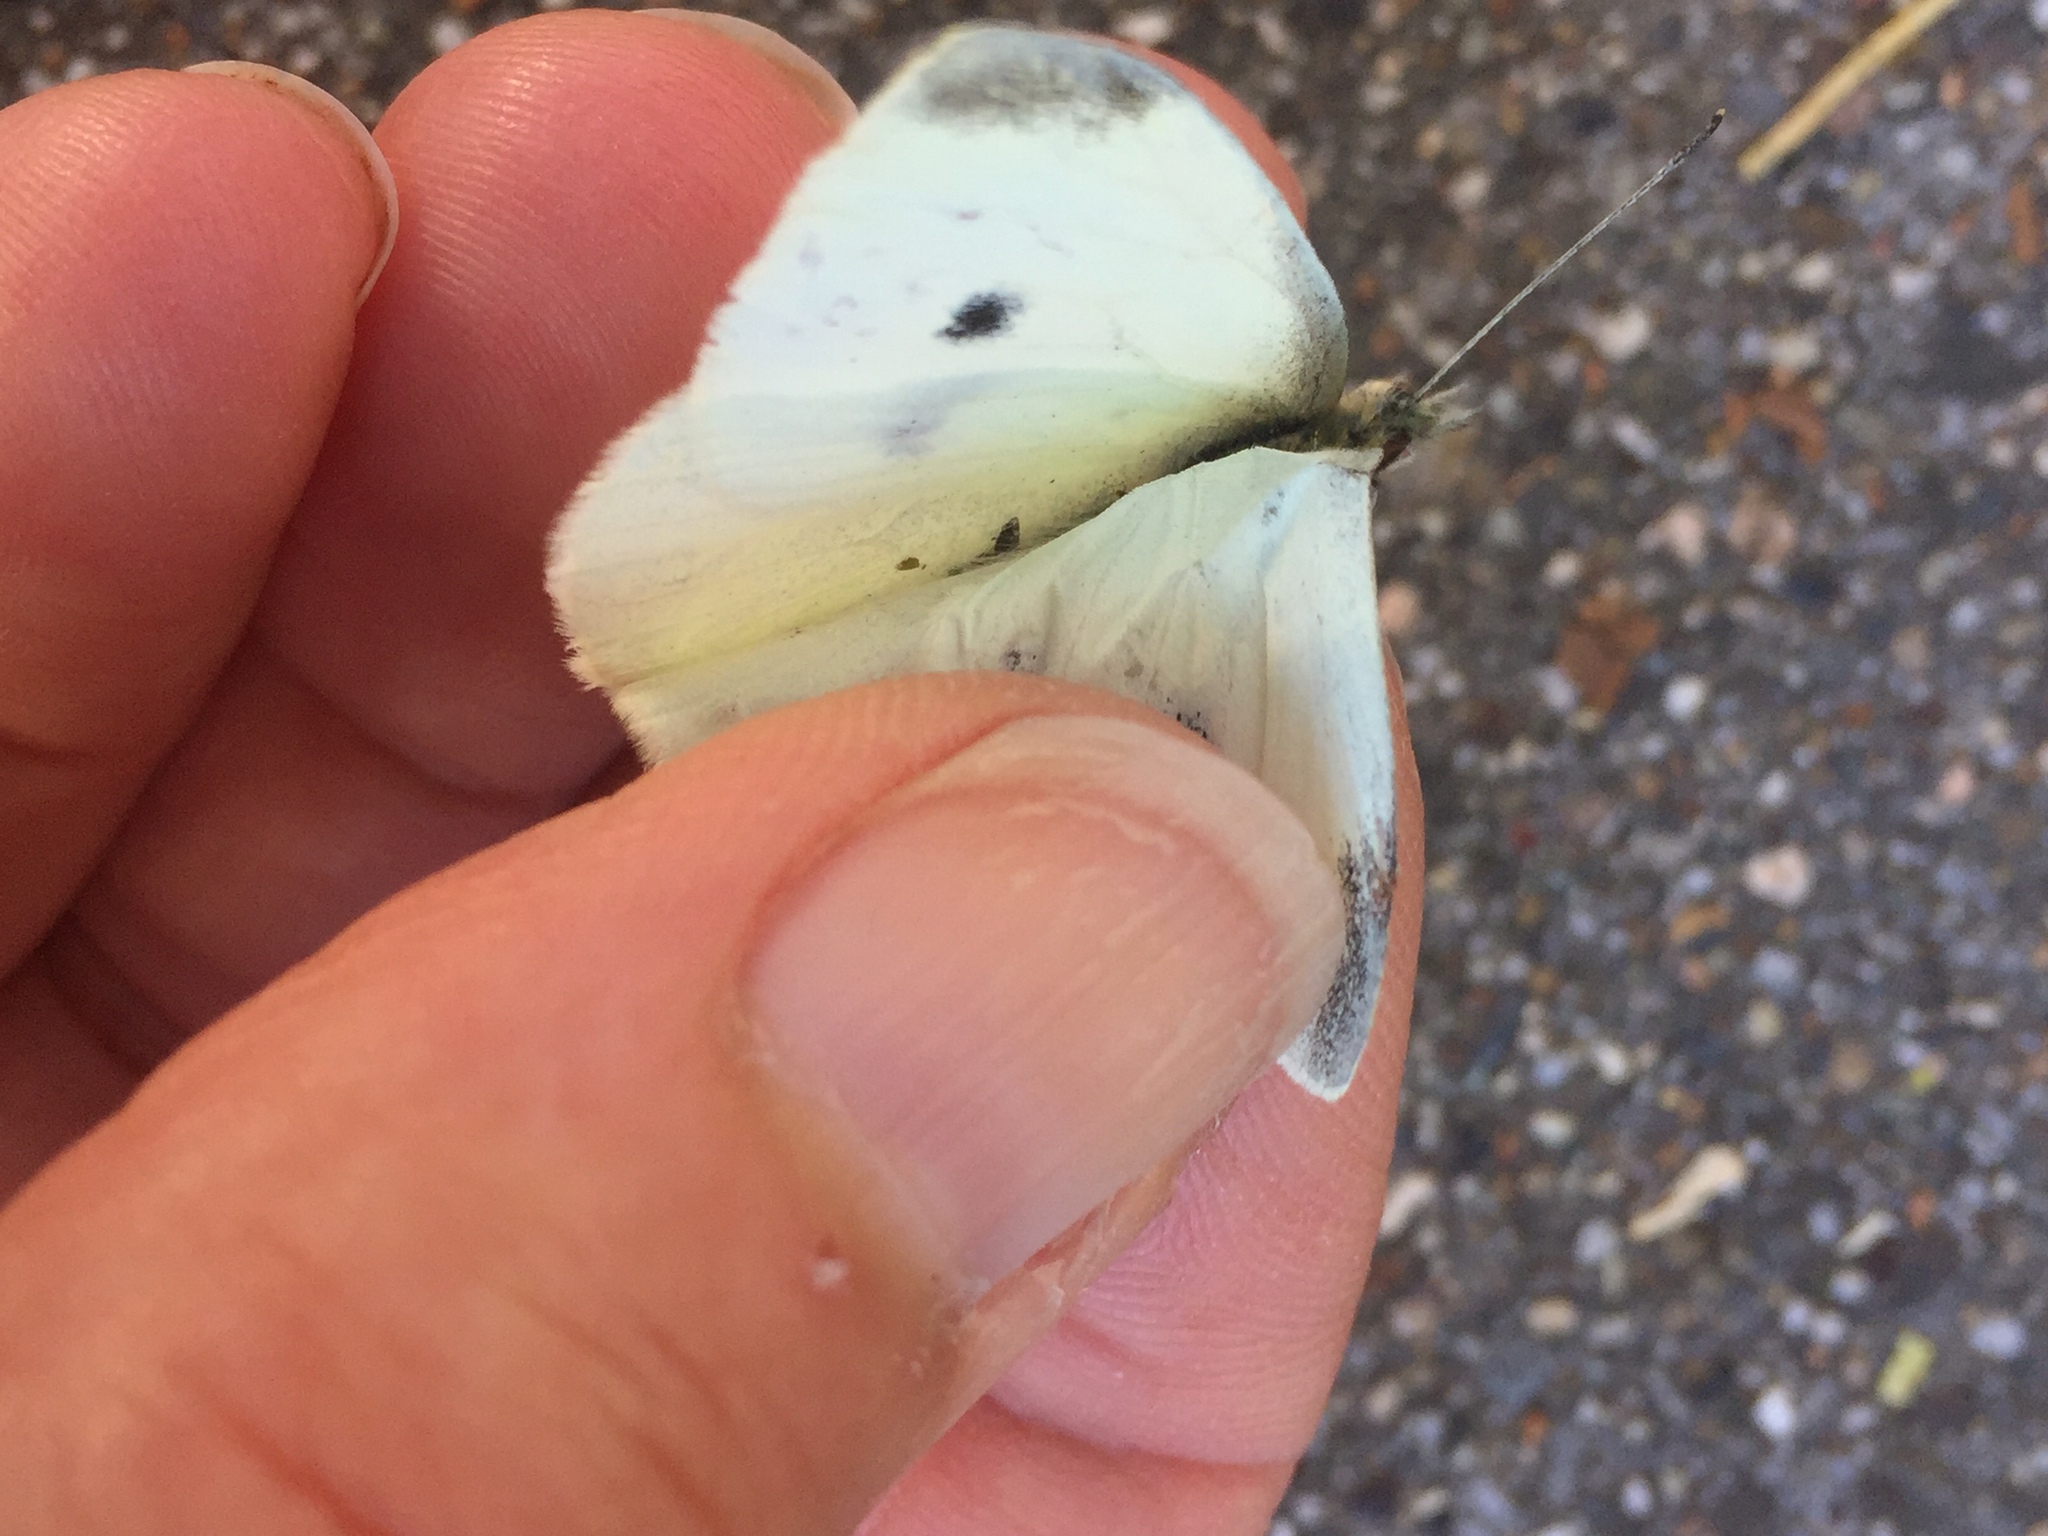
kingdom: Animalia
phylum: Arthropoda
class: Insecta
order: Lepidoptera
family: Pieridae
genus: Pieris
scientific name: Pieris rapae
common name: Small white
